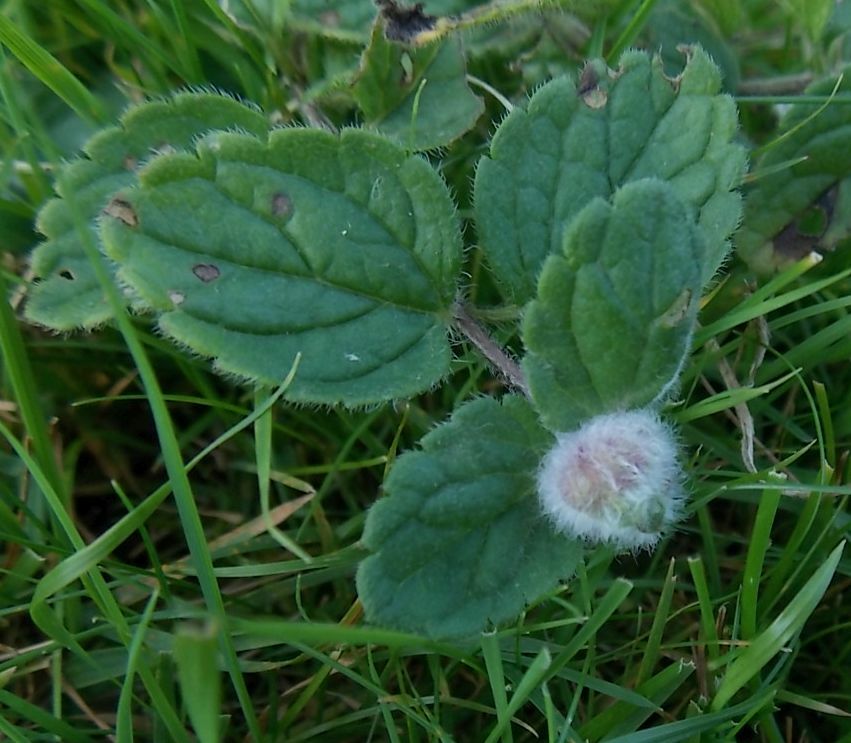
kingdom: Animalia
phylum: Arthropoda
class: Insecta
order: Diptera
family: Cecidomyiidae
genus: Jaapiella
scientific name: Jaapiella veronicae
